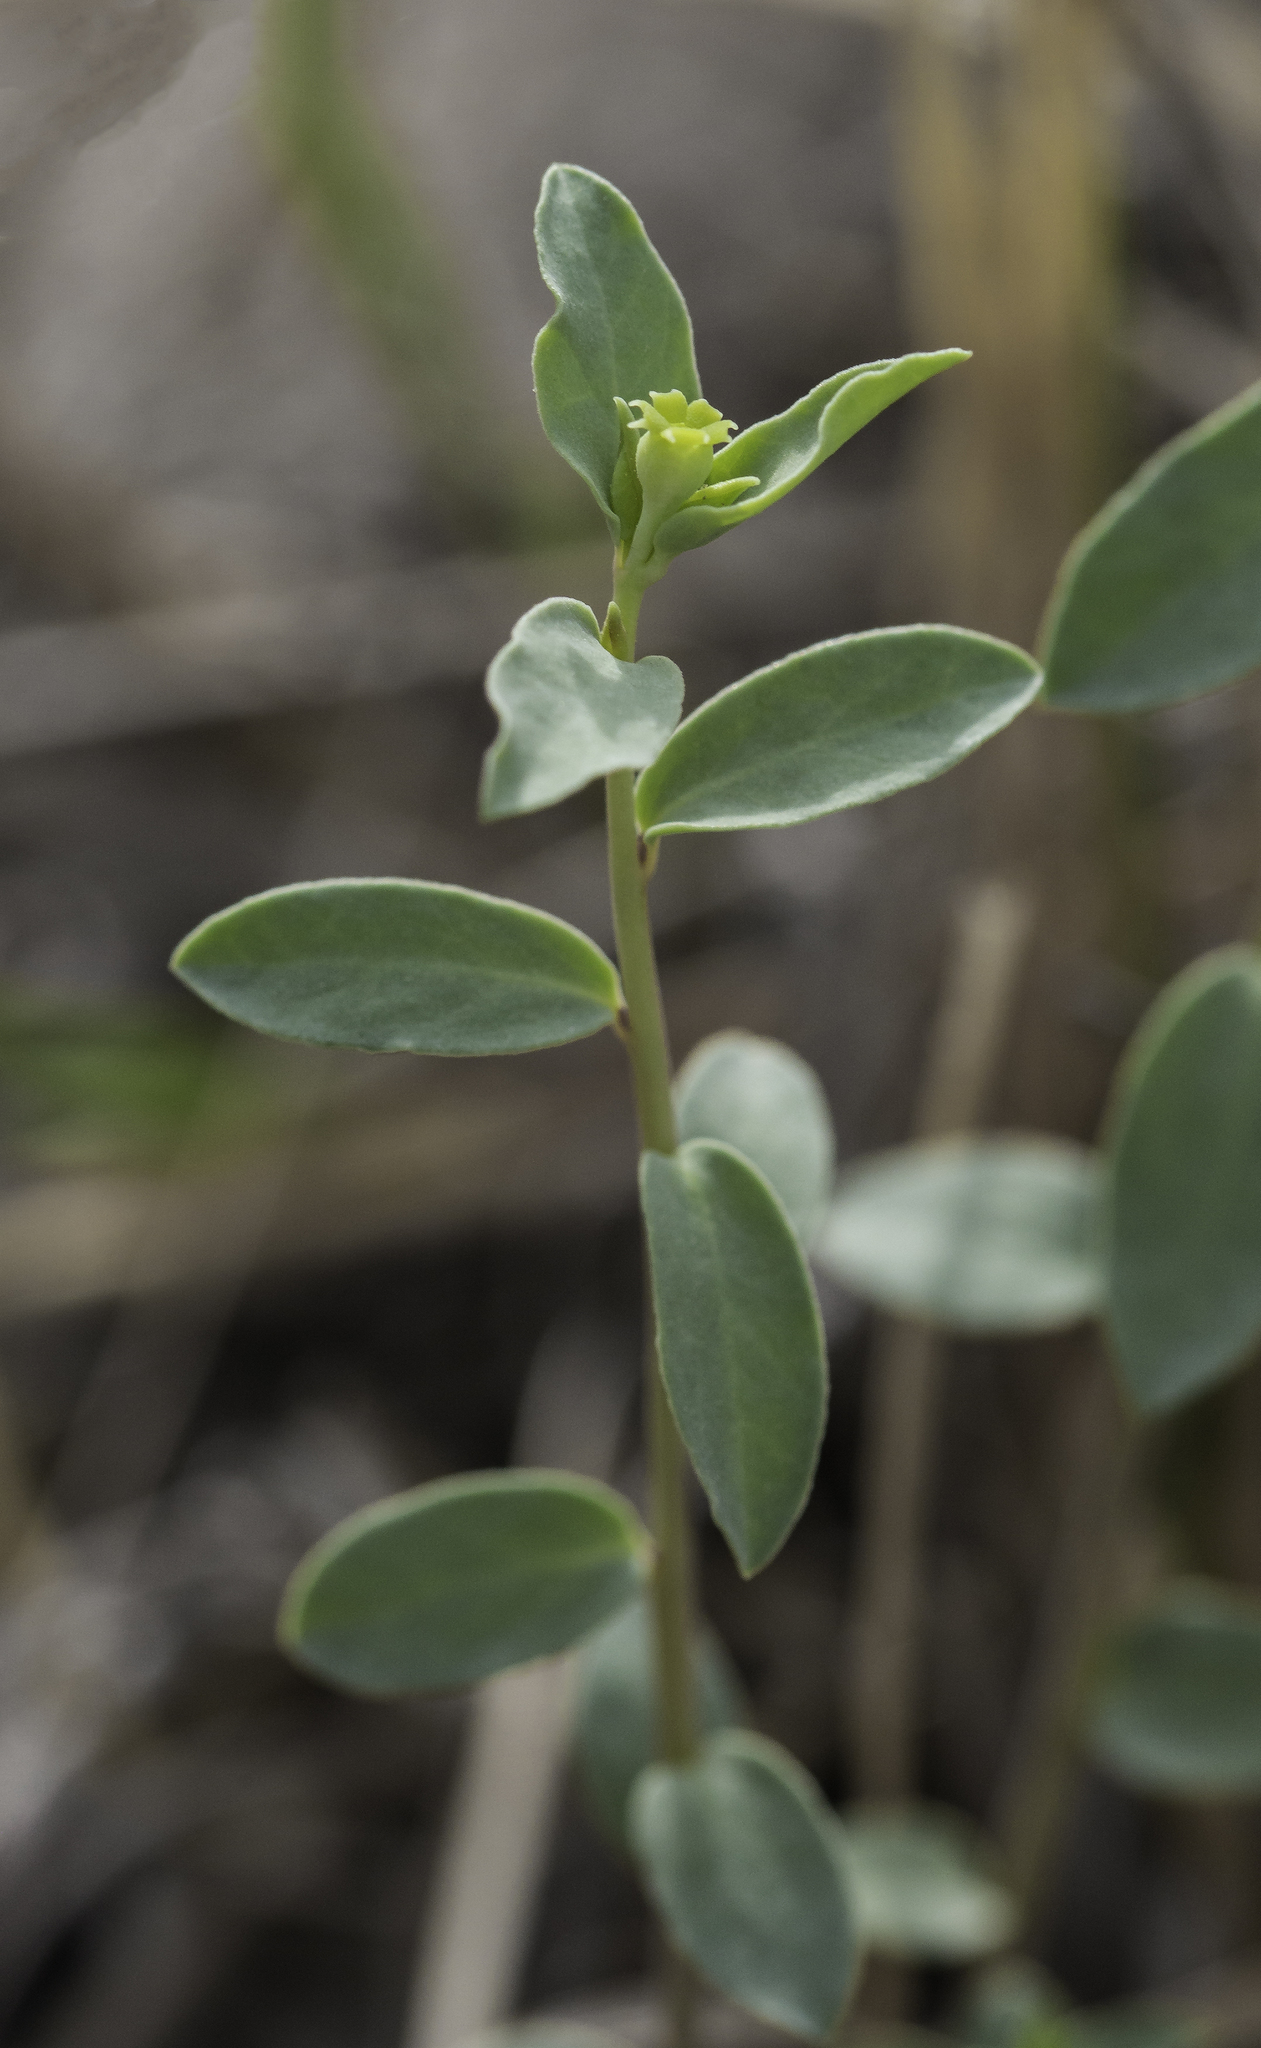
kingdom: Plantae
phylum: Tracheophyta
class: Magnoliopsida
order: Malpighiales
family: Euphorbiaceae
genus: Euphorbia
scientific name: Euphorbia brachycera
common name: Shorthorn spurge
